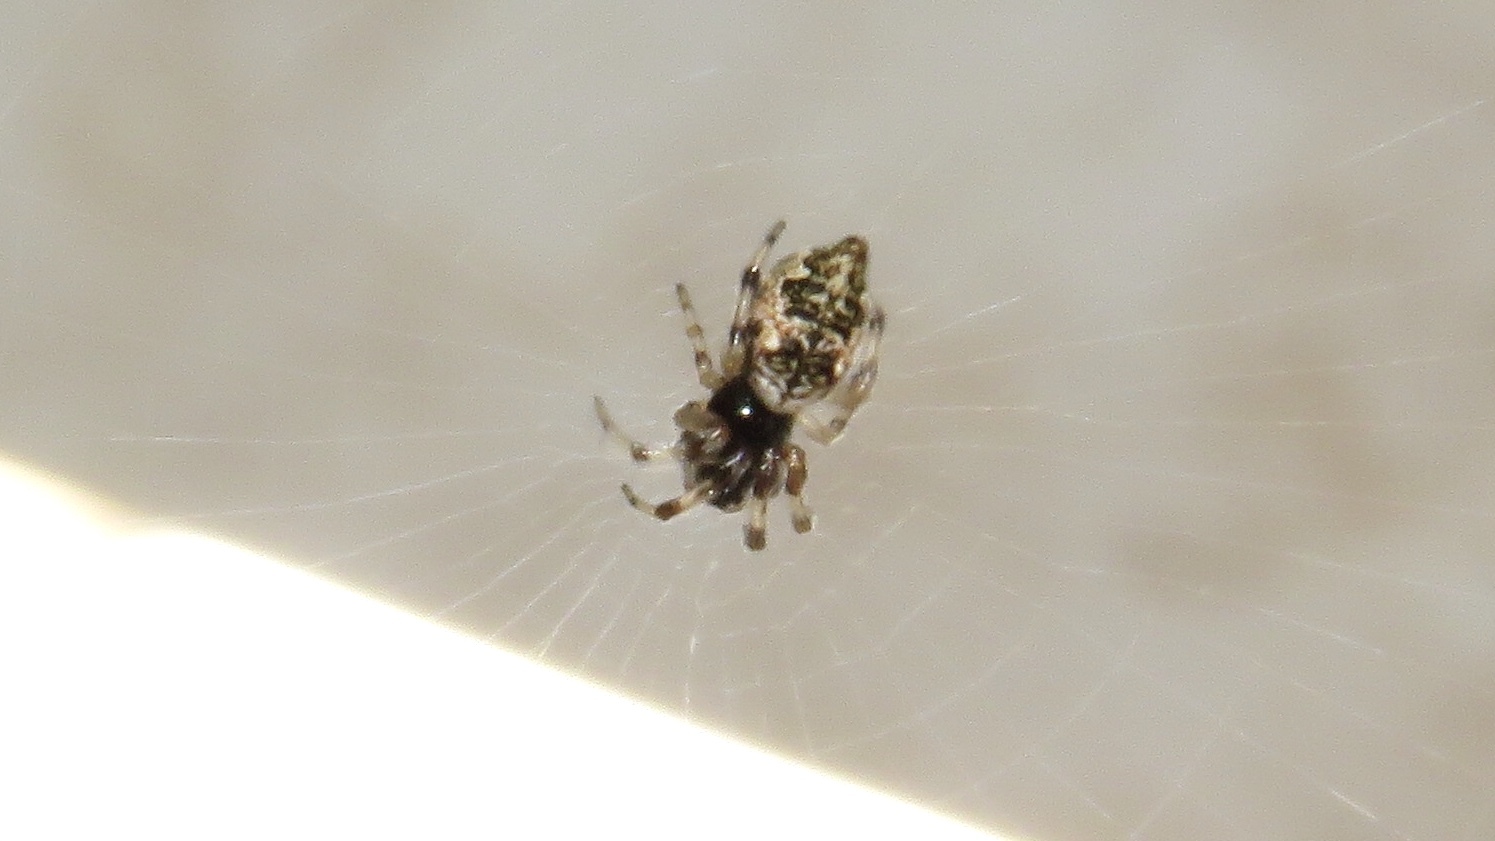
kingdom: Animalia
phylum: Arthropoda
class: Arachnida
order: Araneae
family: Araneidae
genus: Cyclosa
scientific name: Cyclosa turbinata
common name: Orb weavers
